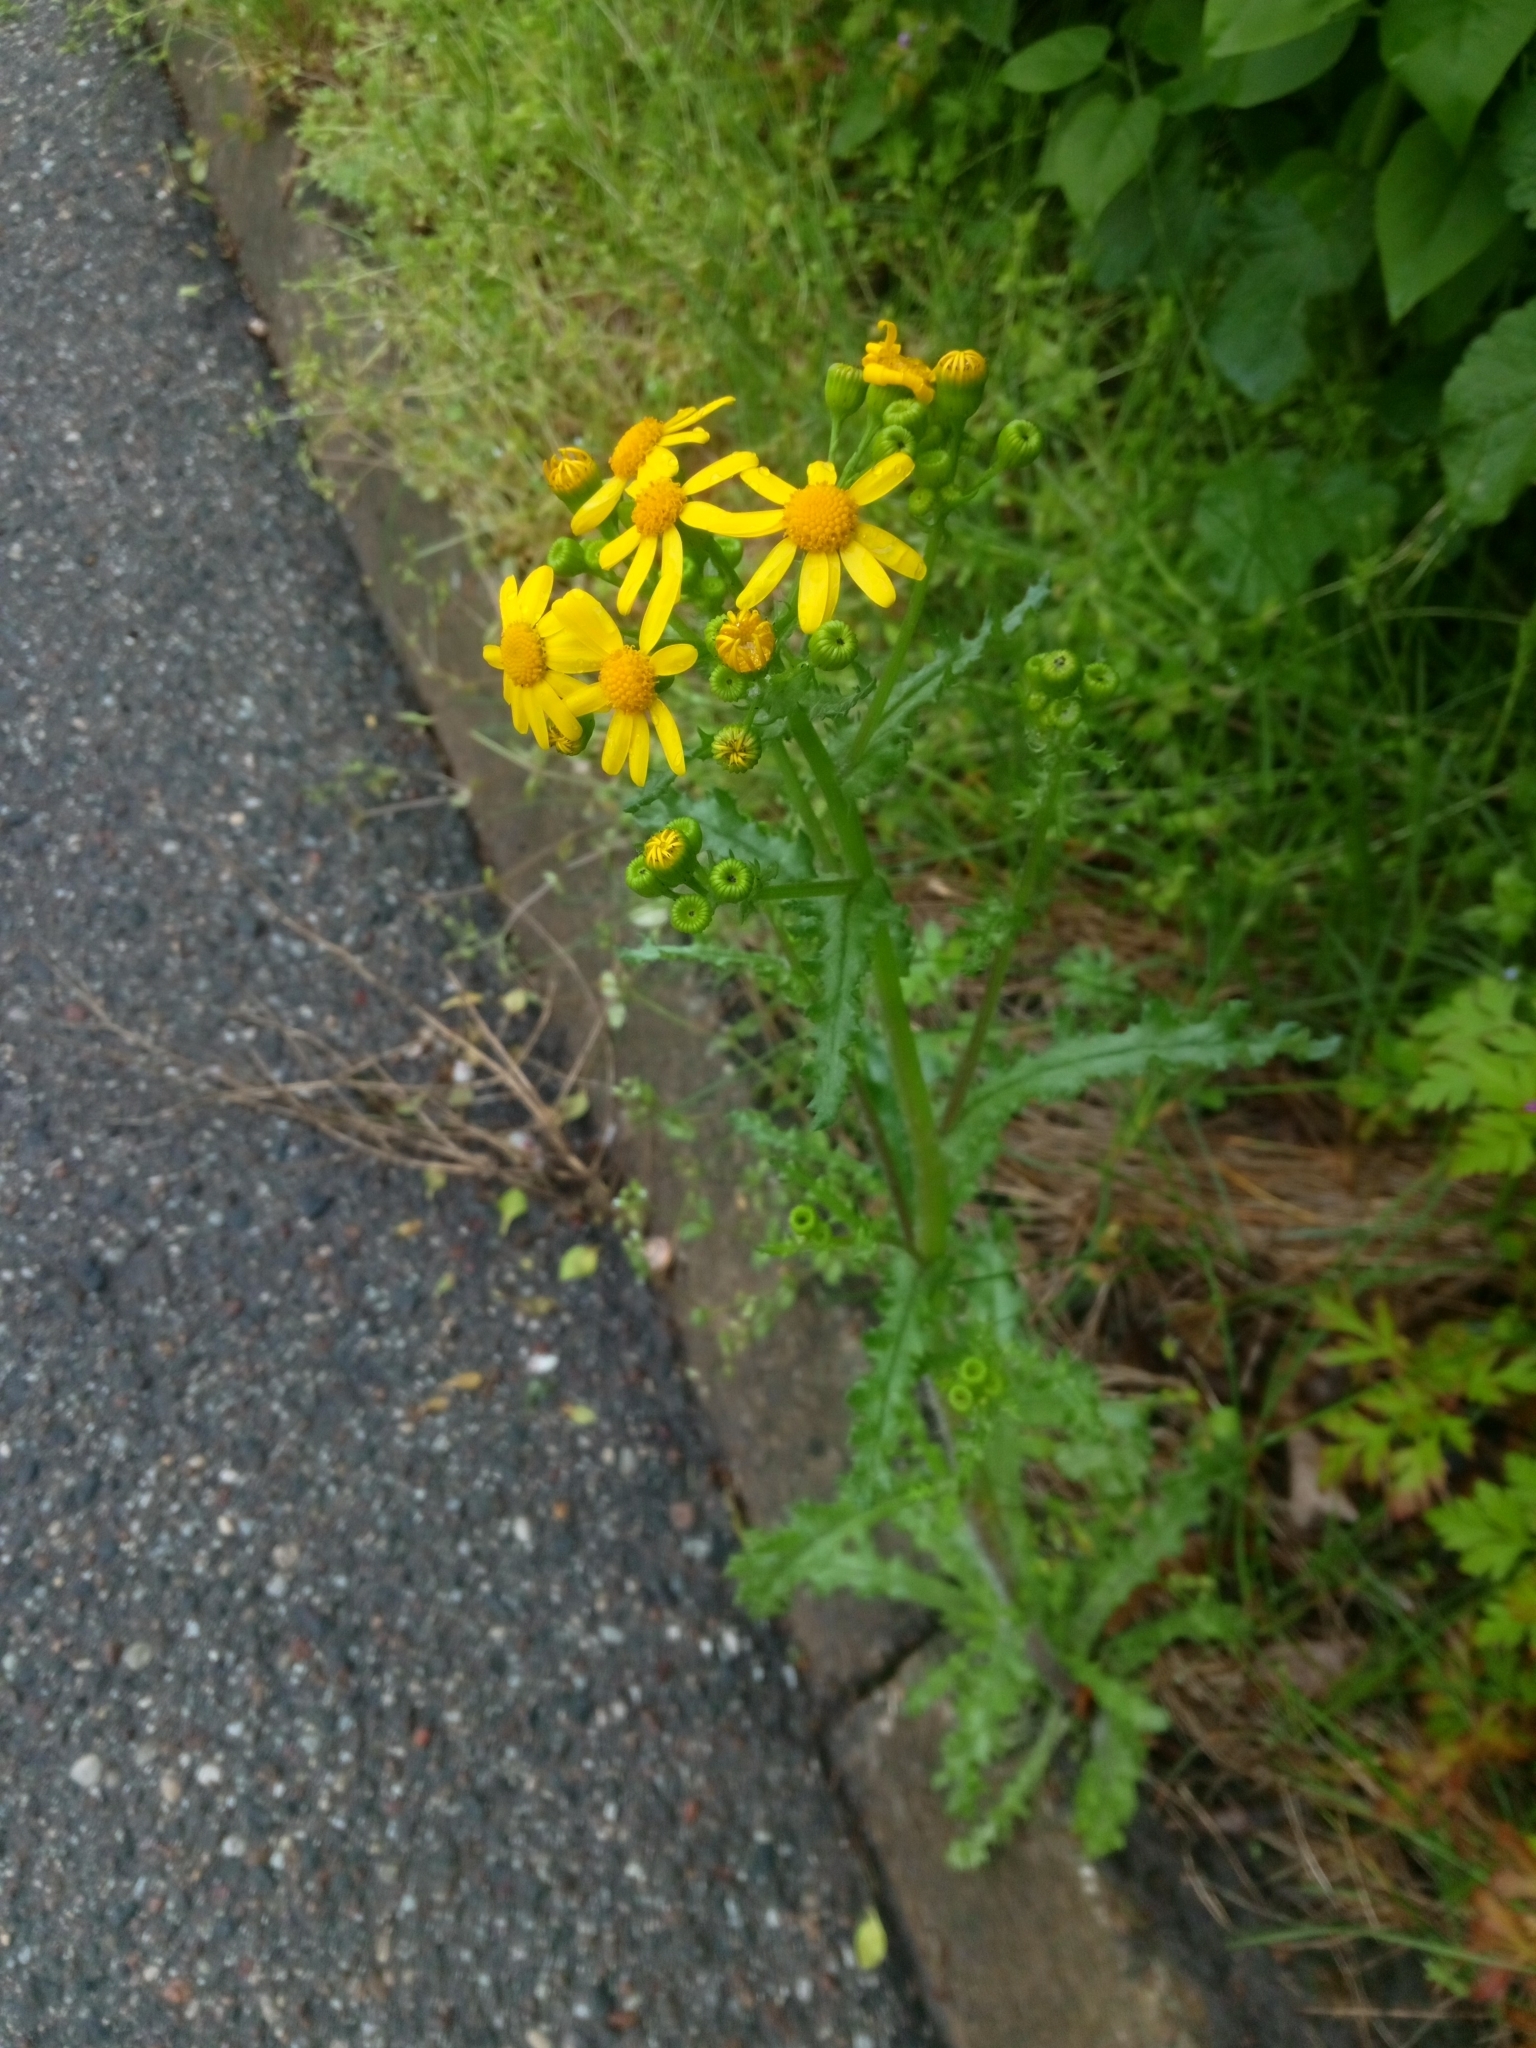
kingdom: Plantae
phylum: Tracheophyta
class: Magnoliopsida
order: Asterales
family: Asteraceae
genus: Senecio
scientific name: Senecio vernalis
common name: Eastern groundsel
